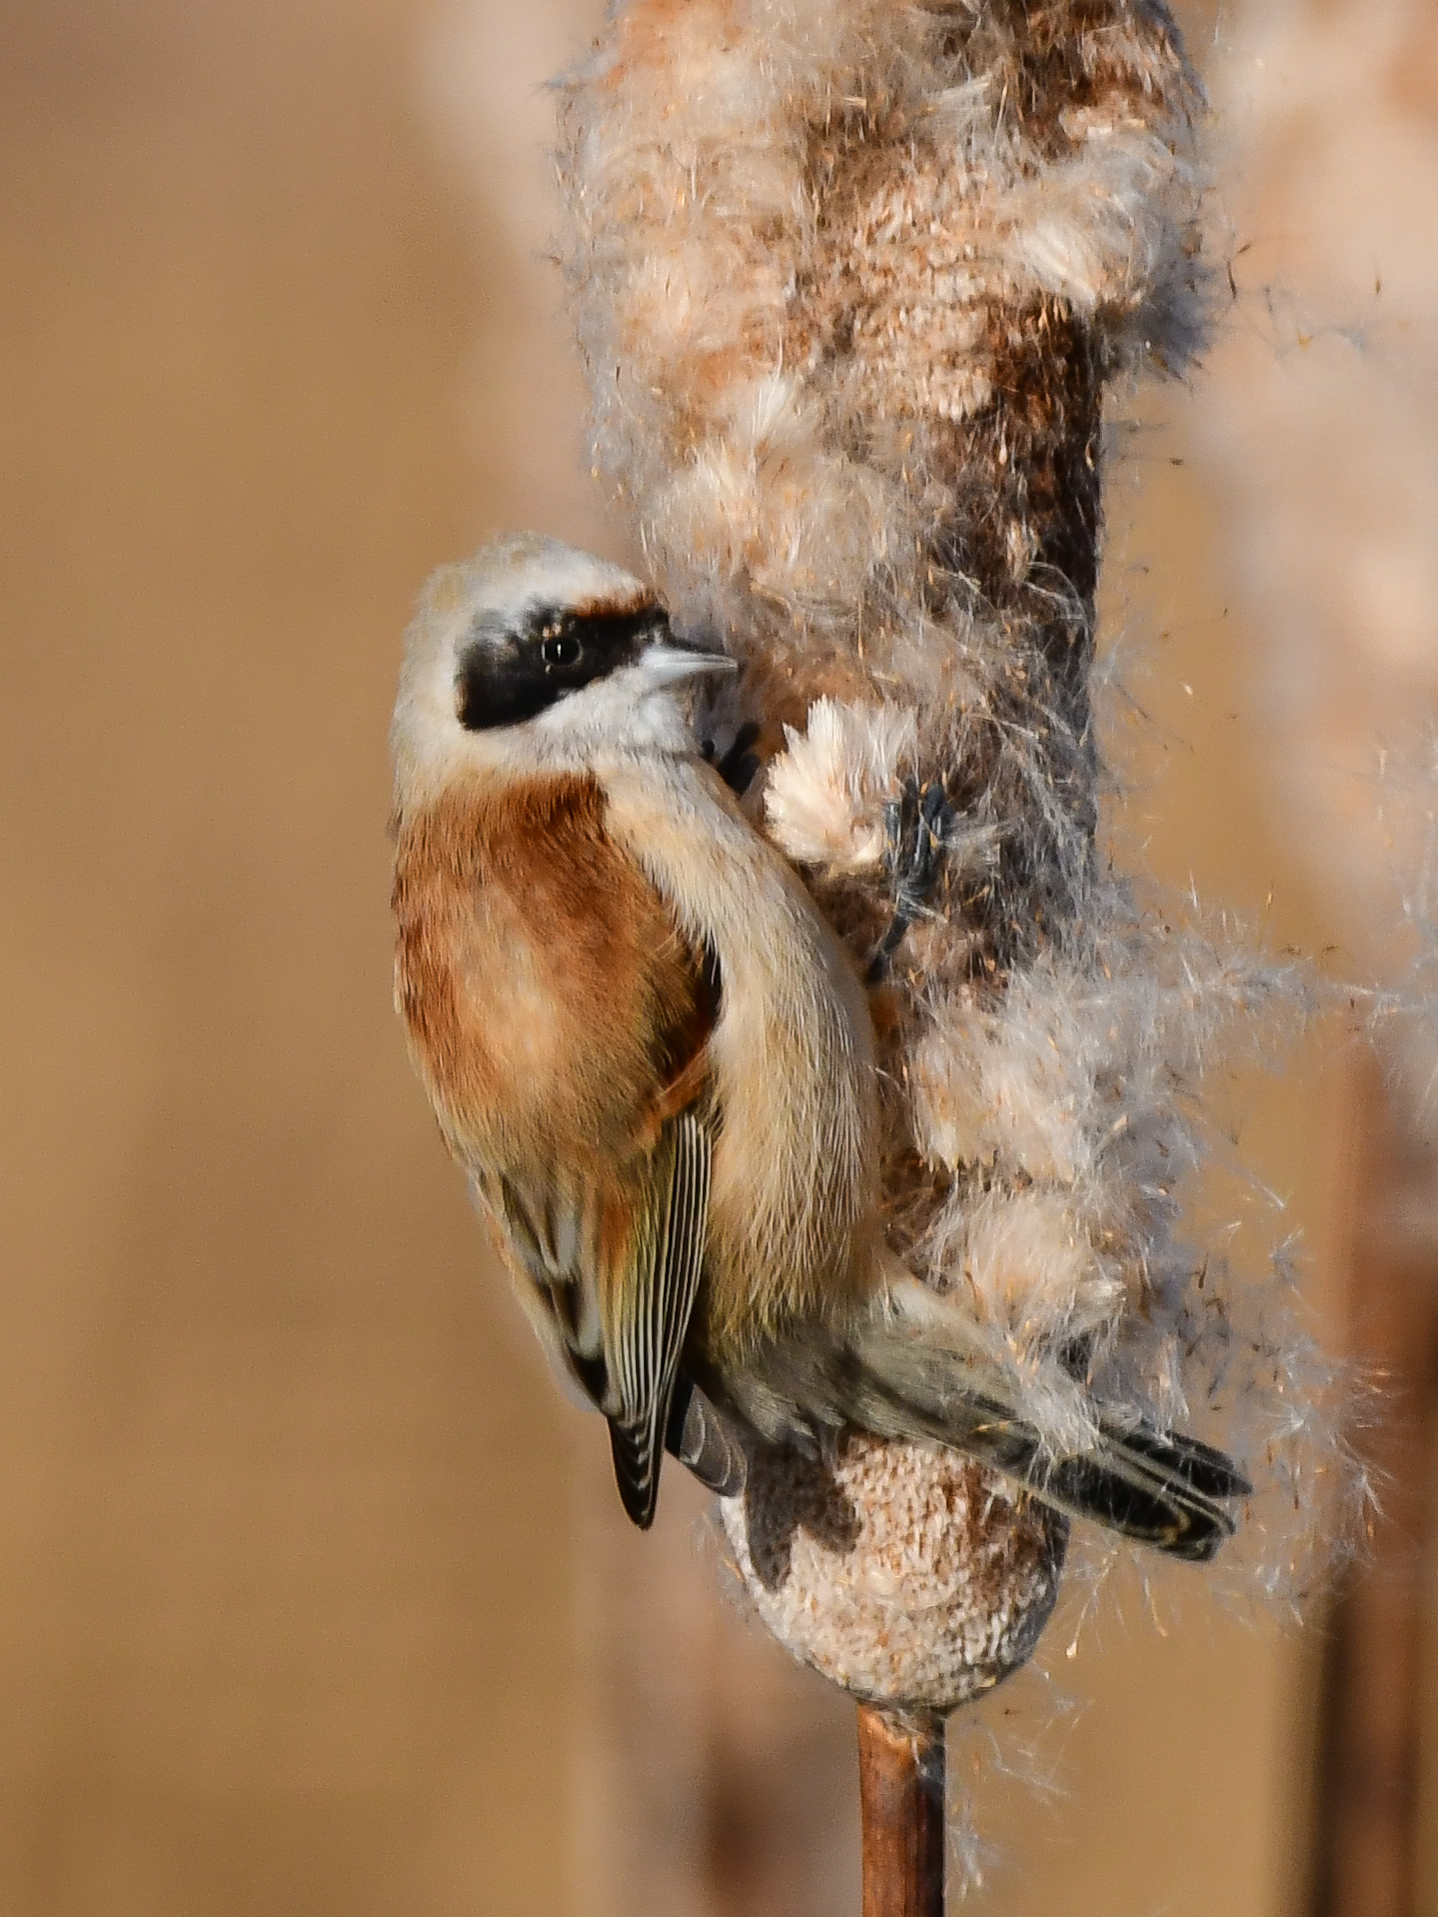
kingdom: Animalia
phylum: Chordata
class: Aves
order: Passeriformes
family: Remizidae
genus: Remiz
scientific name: Remiz pendulinus
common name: Eurasian penduline tit
